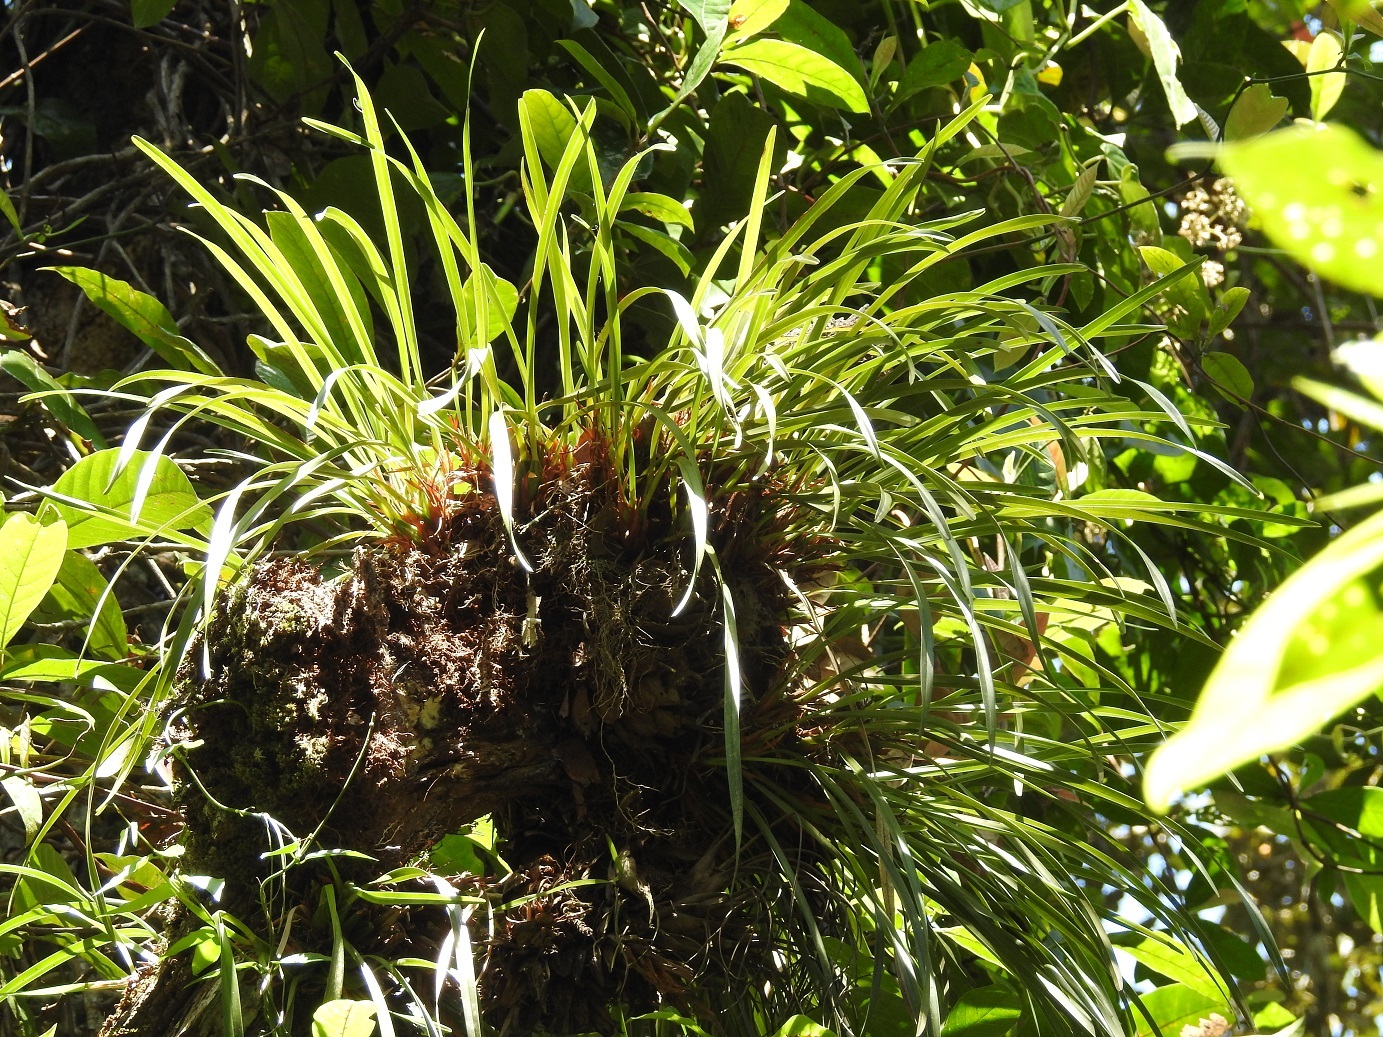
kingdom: Plantae
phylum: Tracheophyta
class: Liliopsida
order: Asparagales
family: Orchidaceae
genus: Maxillaria
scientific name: Maxillaria meleagris
